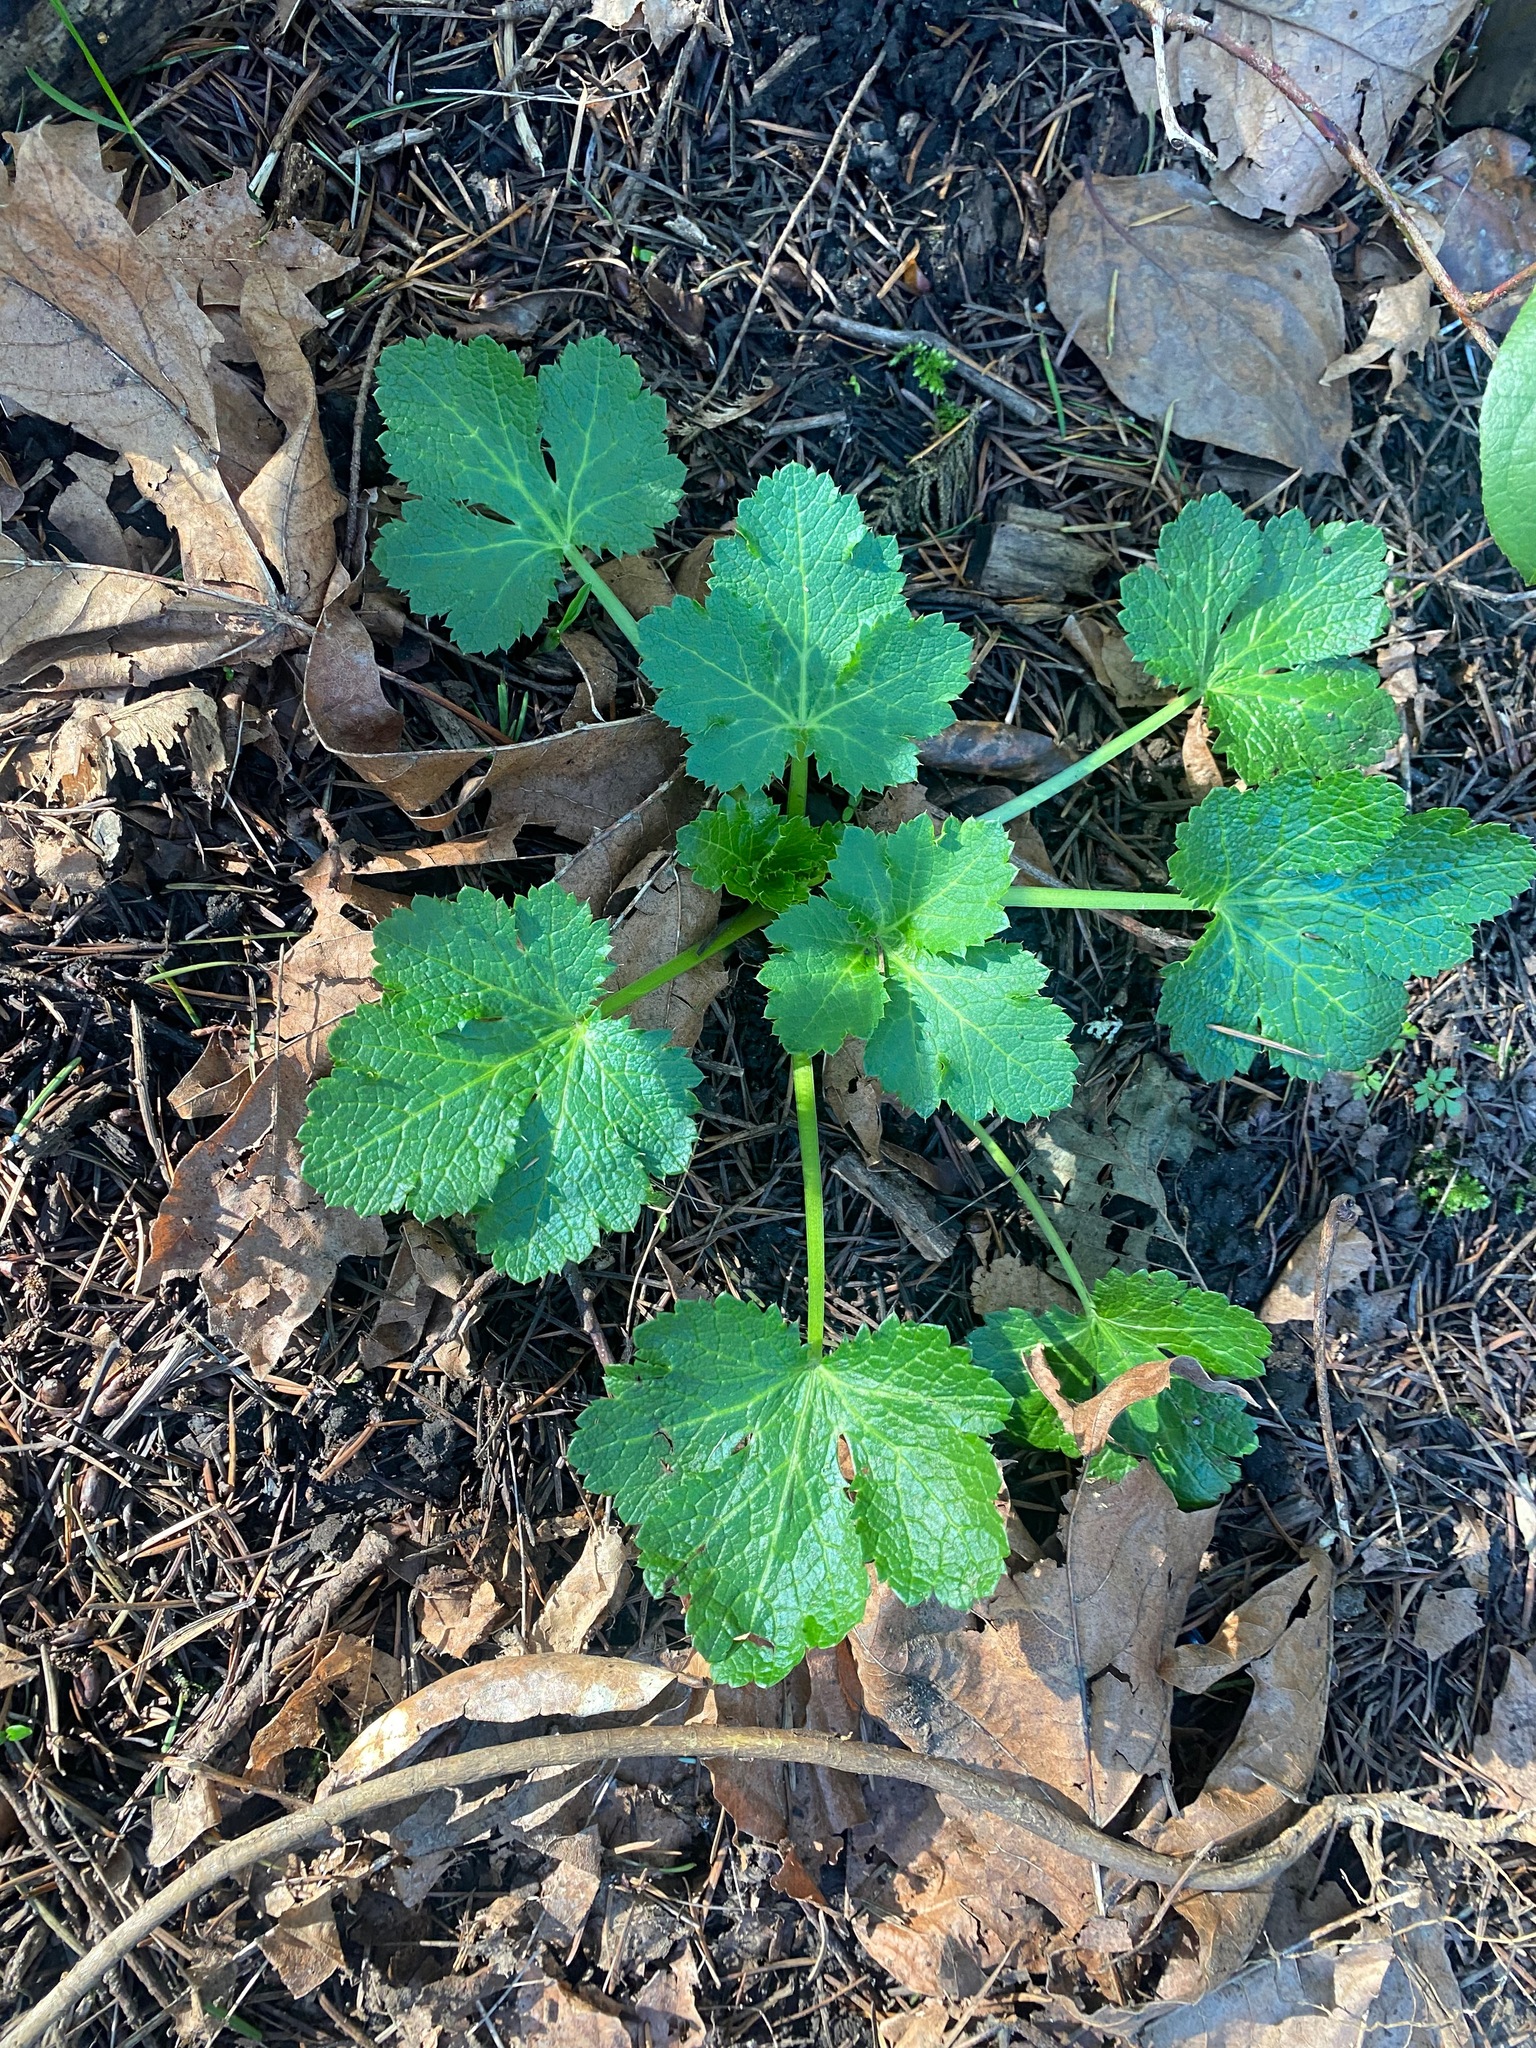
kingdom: Plantae
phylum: Tracheophyta
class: Magnoliopsida
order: Apiales
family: Apiaceae
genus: Sanicula
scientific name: Sanicula crassicaulis
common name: Western snakeroot
